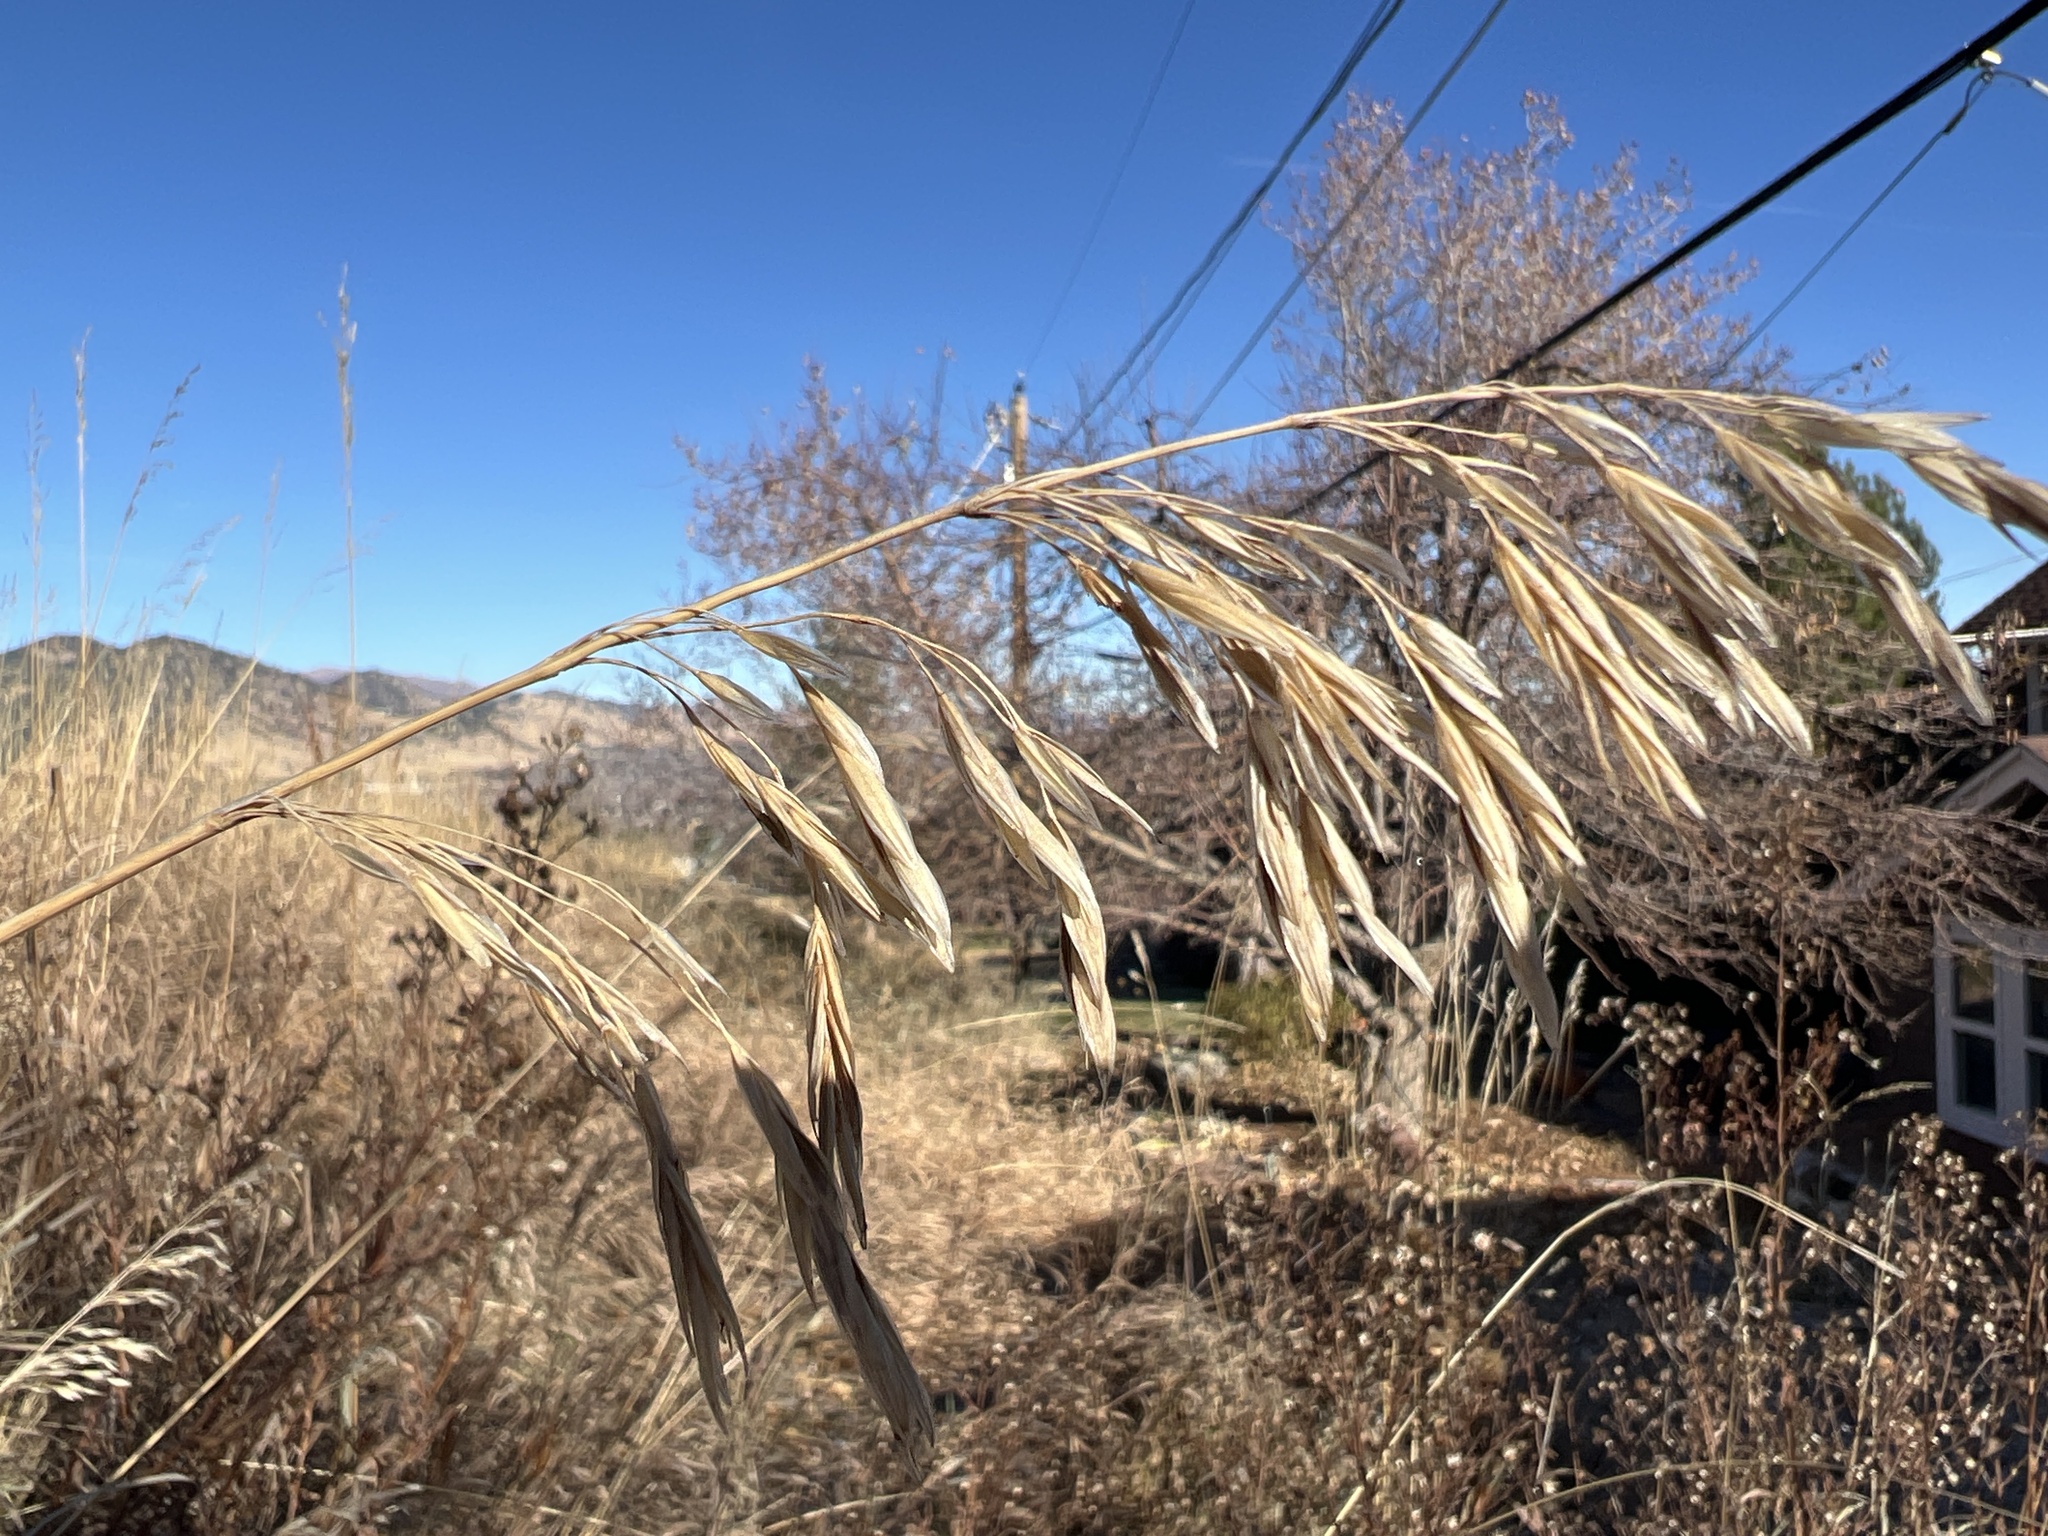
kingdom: Plantae
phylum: Tracheophyta
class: Liliopsida
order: Poales
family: Poaceae
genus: Bromus
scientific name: Bromus inermis
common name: Smooth brome
